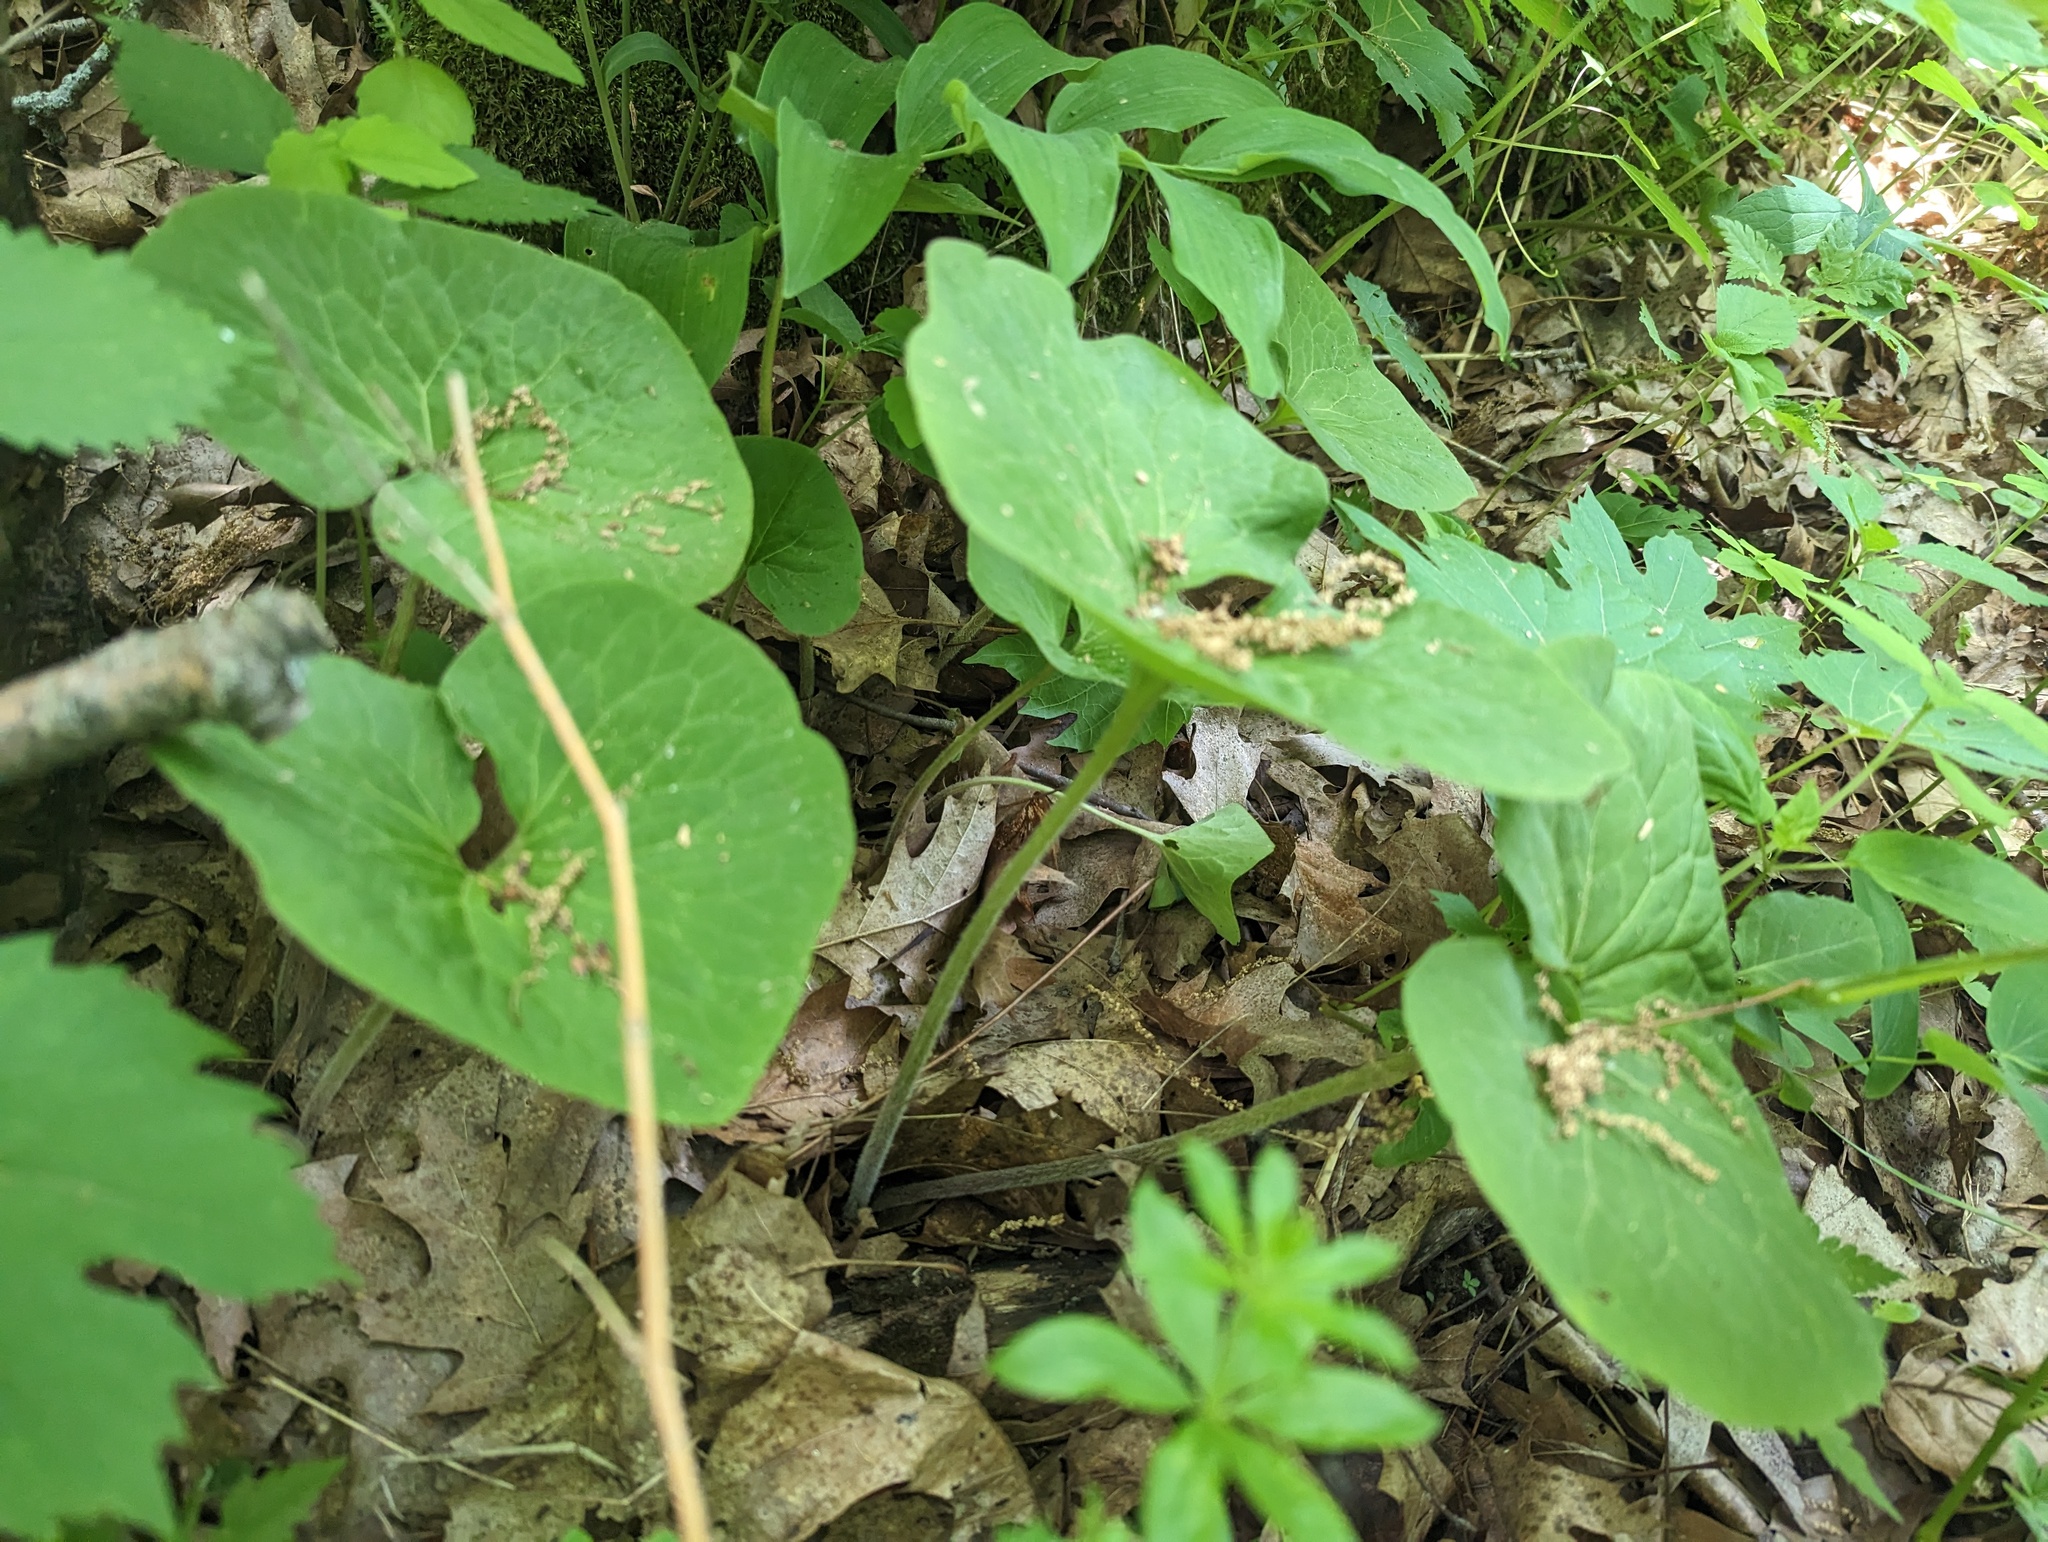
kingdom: Plantae
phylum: Tracheophyta
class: Magnoliopsida
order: Piperales
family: Aristolochiaceae
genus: Asarum
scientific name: Asarum canadense
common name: Wild ginger
